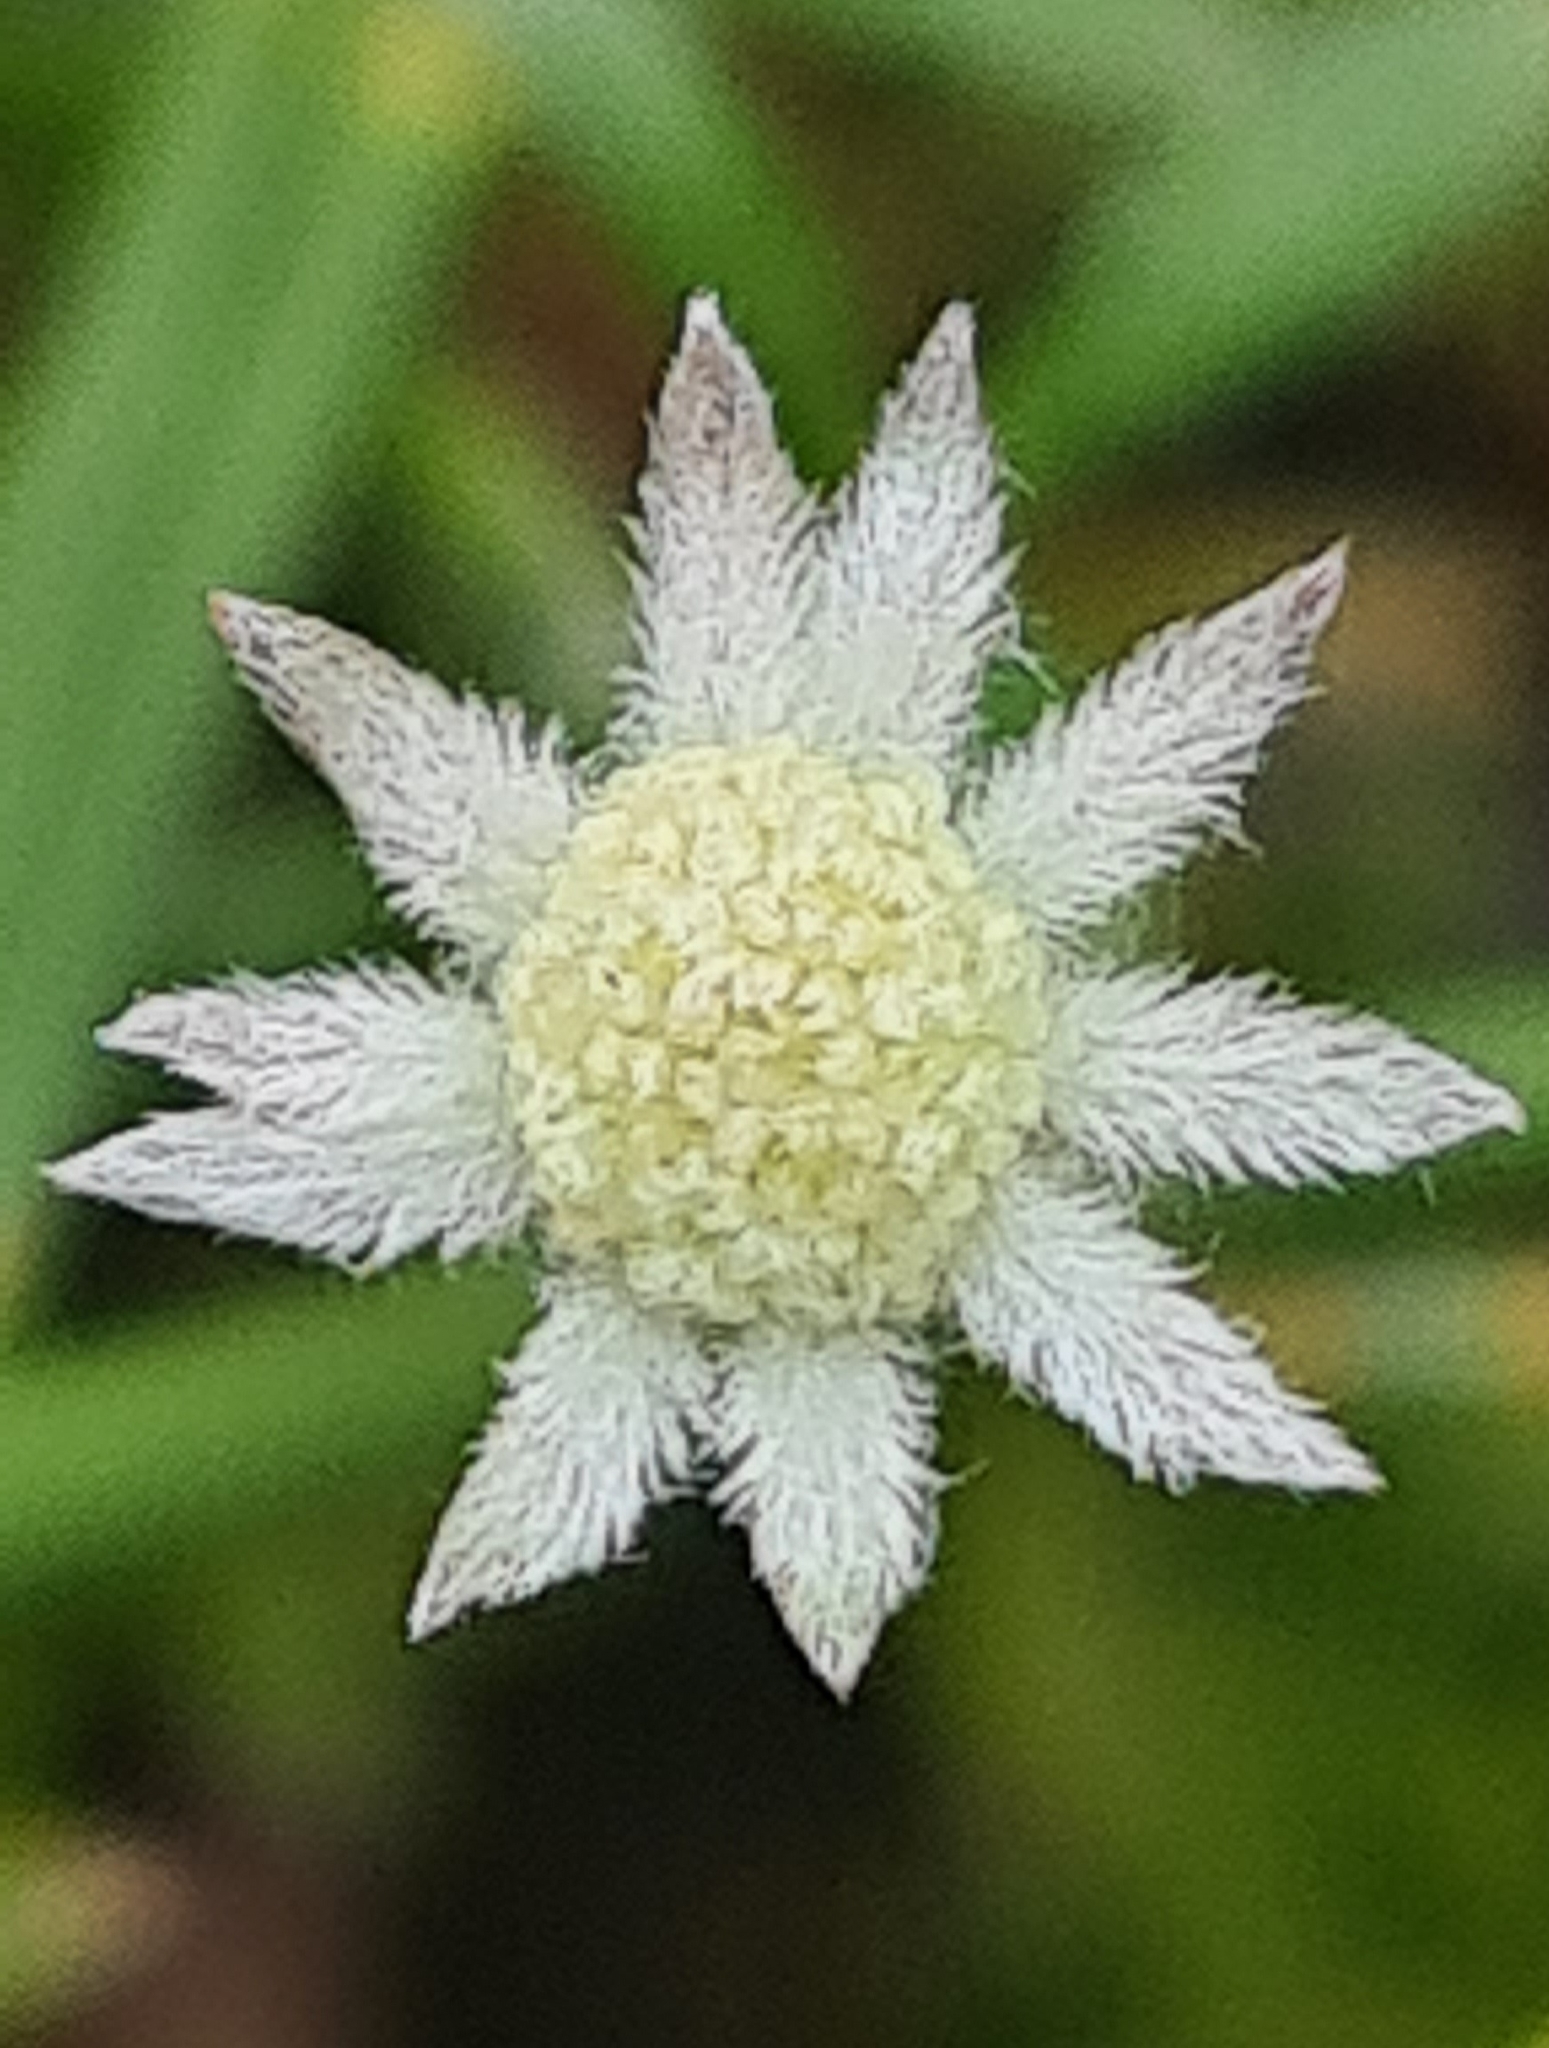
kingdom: Plantae
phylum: Tracheophyta
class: Magnoliopsida
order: Apiales
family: Apiaceae
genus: Actinotus
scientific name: Actinotus minor
